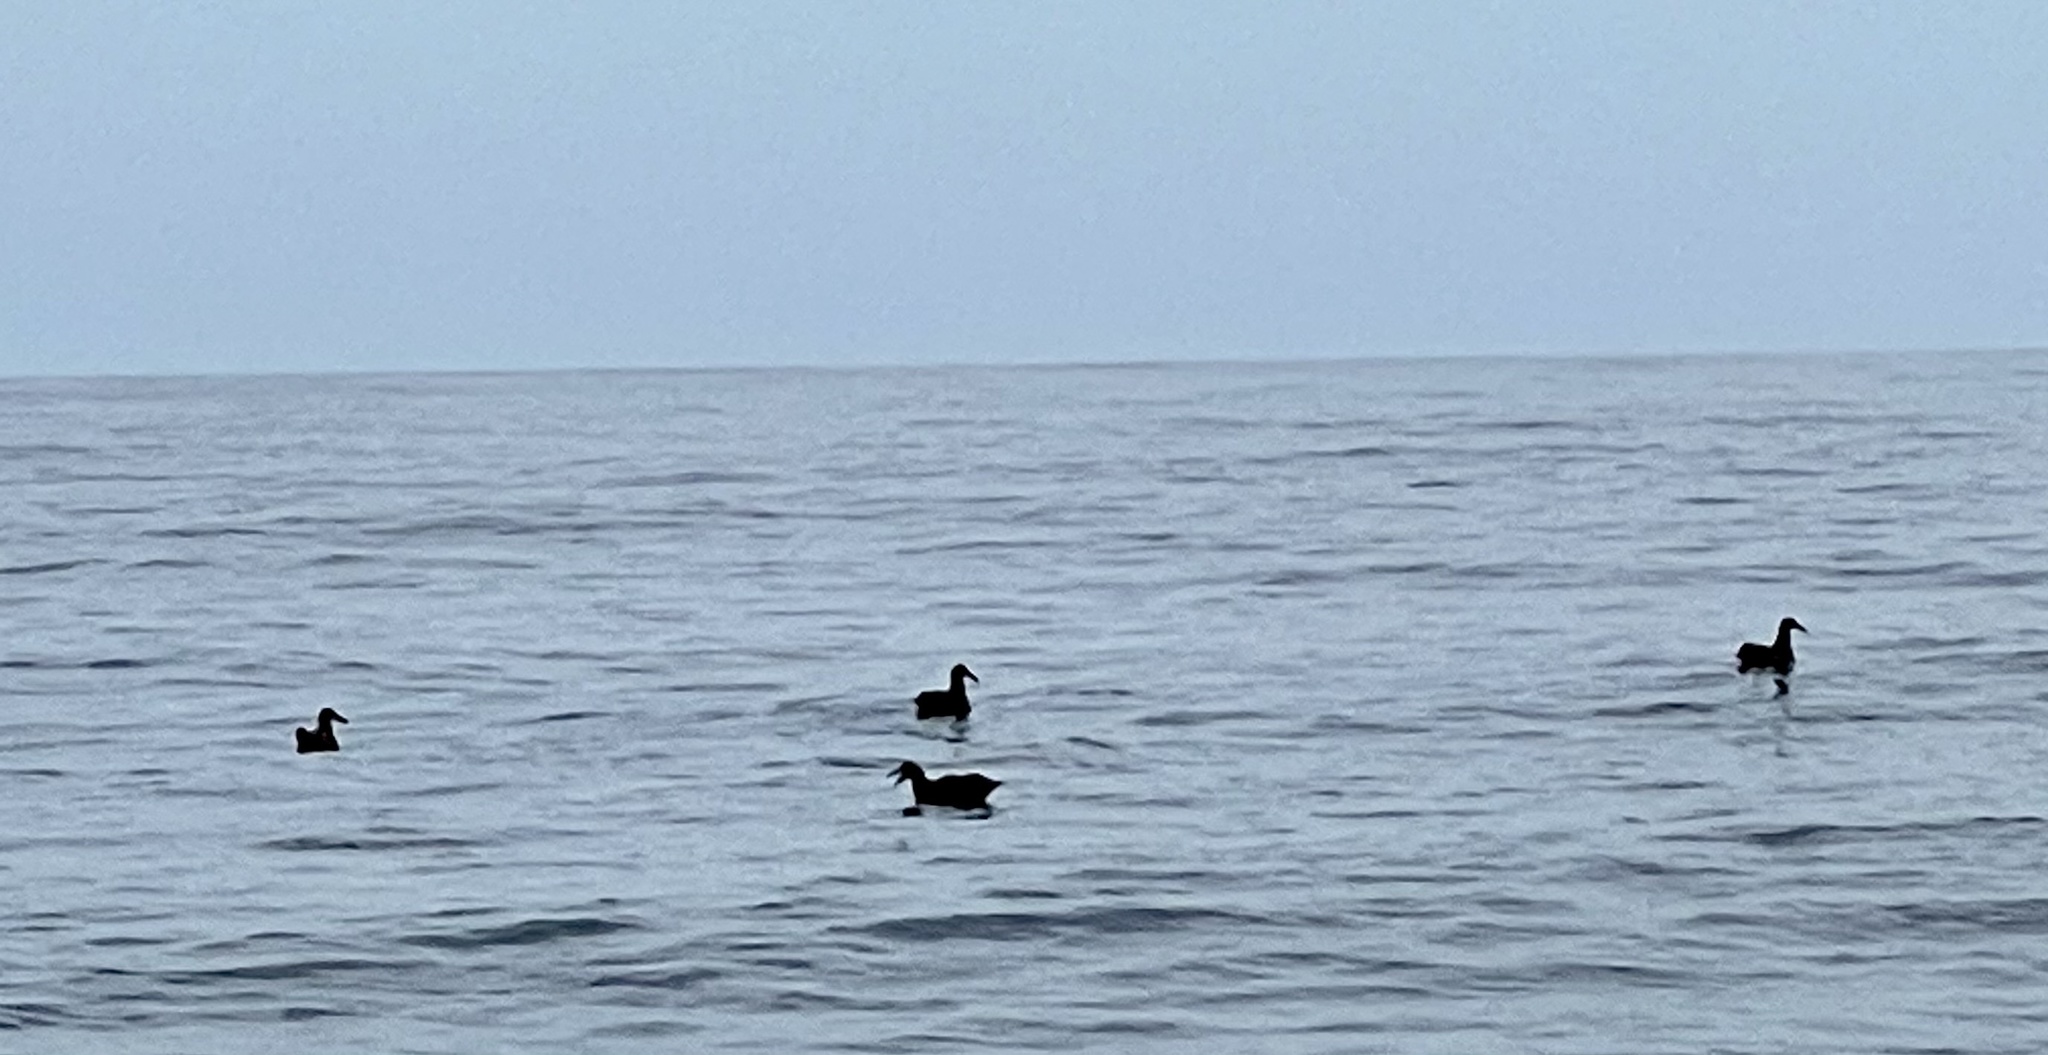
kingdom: Animalia
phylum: Chordata
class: Aves
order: Procellariiformes
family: Diomedeidae
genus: Phoebastria
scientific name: Phoebastria nigripes
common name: Black-footed albatross
